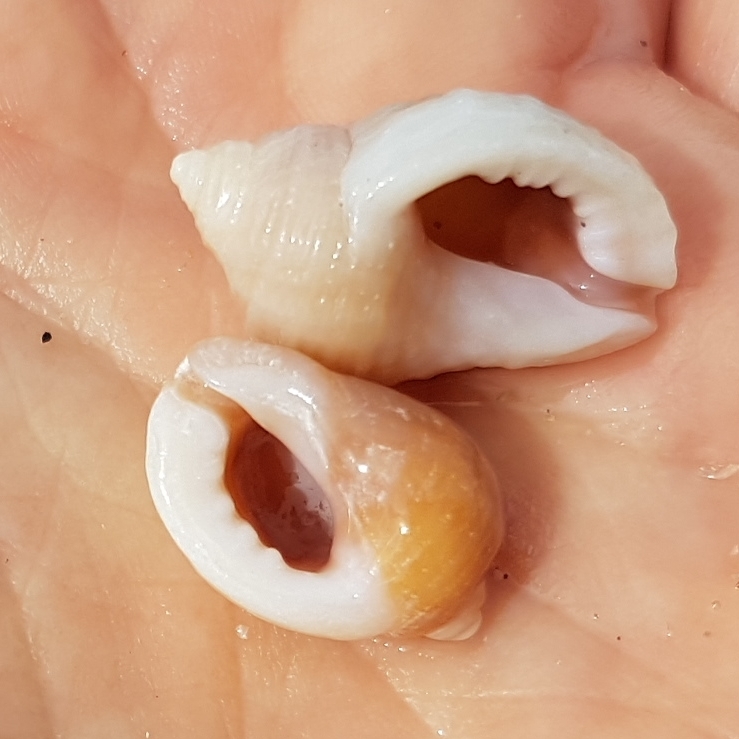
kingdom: Animalia
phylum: Mollusca
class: Gastropoda
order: Neogastropoda
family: Muricidae
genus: Nucella
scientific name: Nucella lapillus
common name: Dog whelk
